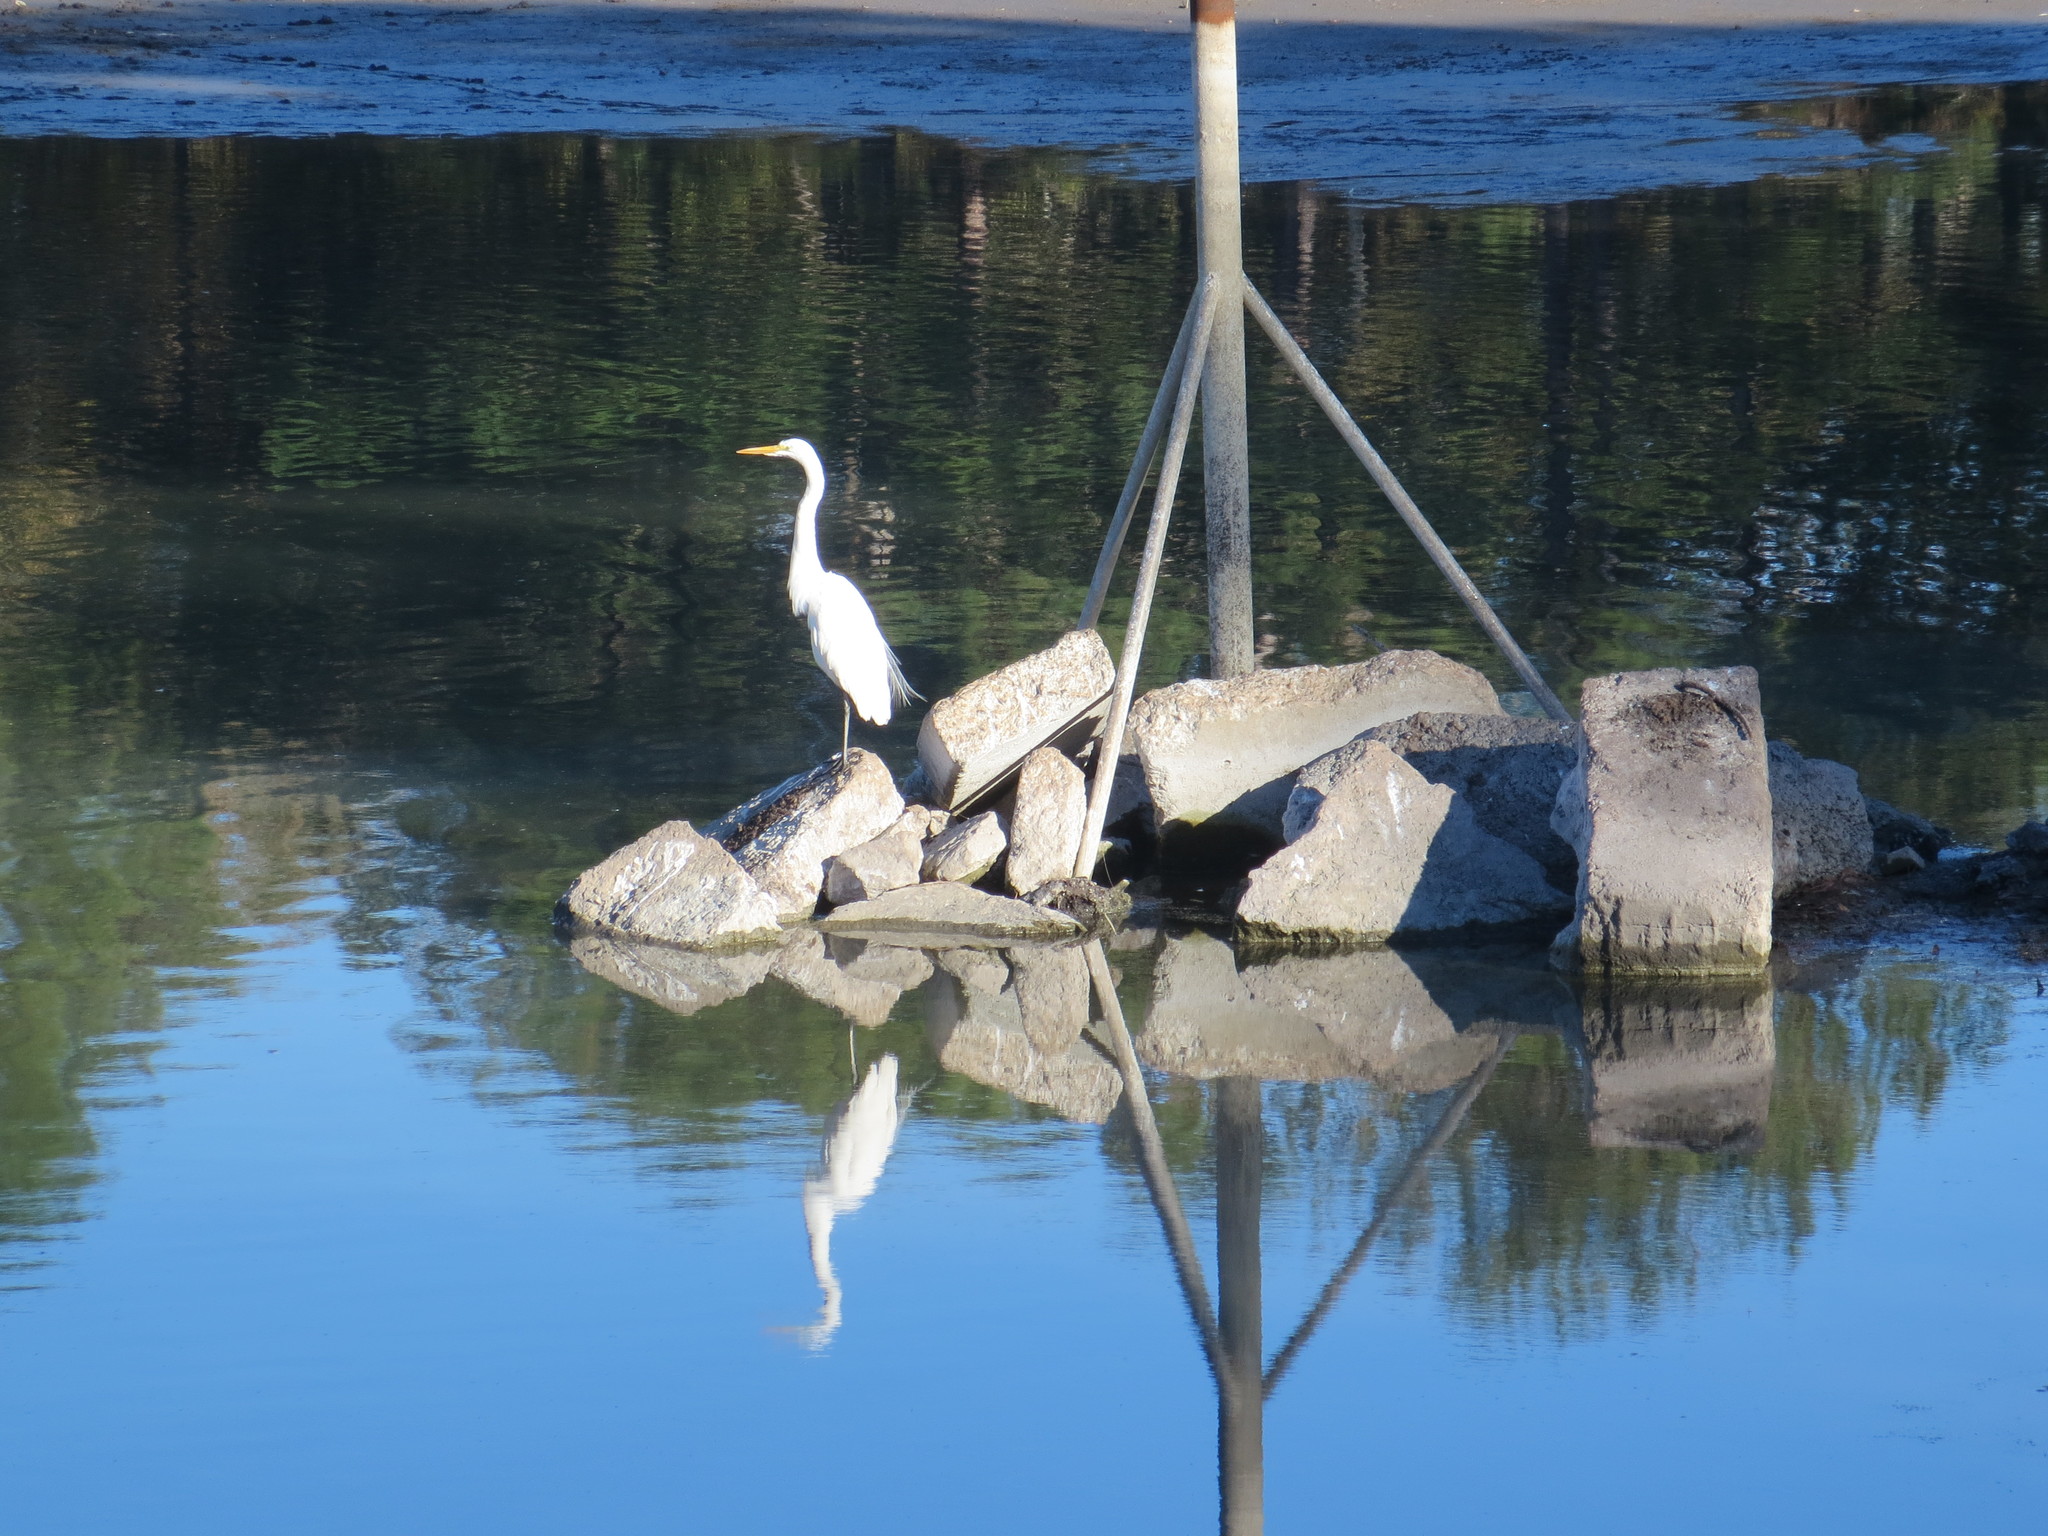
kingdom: Animalia
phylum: Chordata
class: Aves
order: Pelecaniformes
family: Ardeidae
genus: Ardea
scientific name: Ardea alba
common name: Great egret
